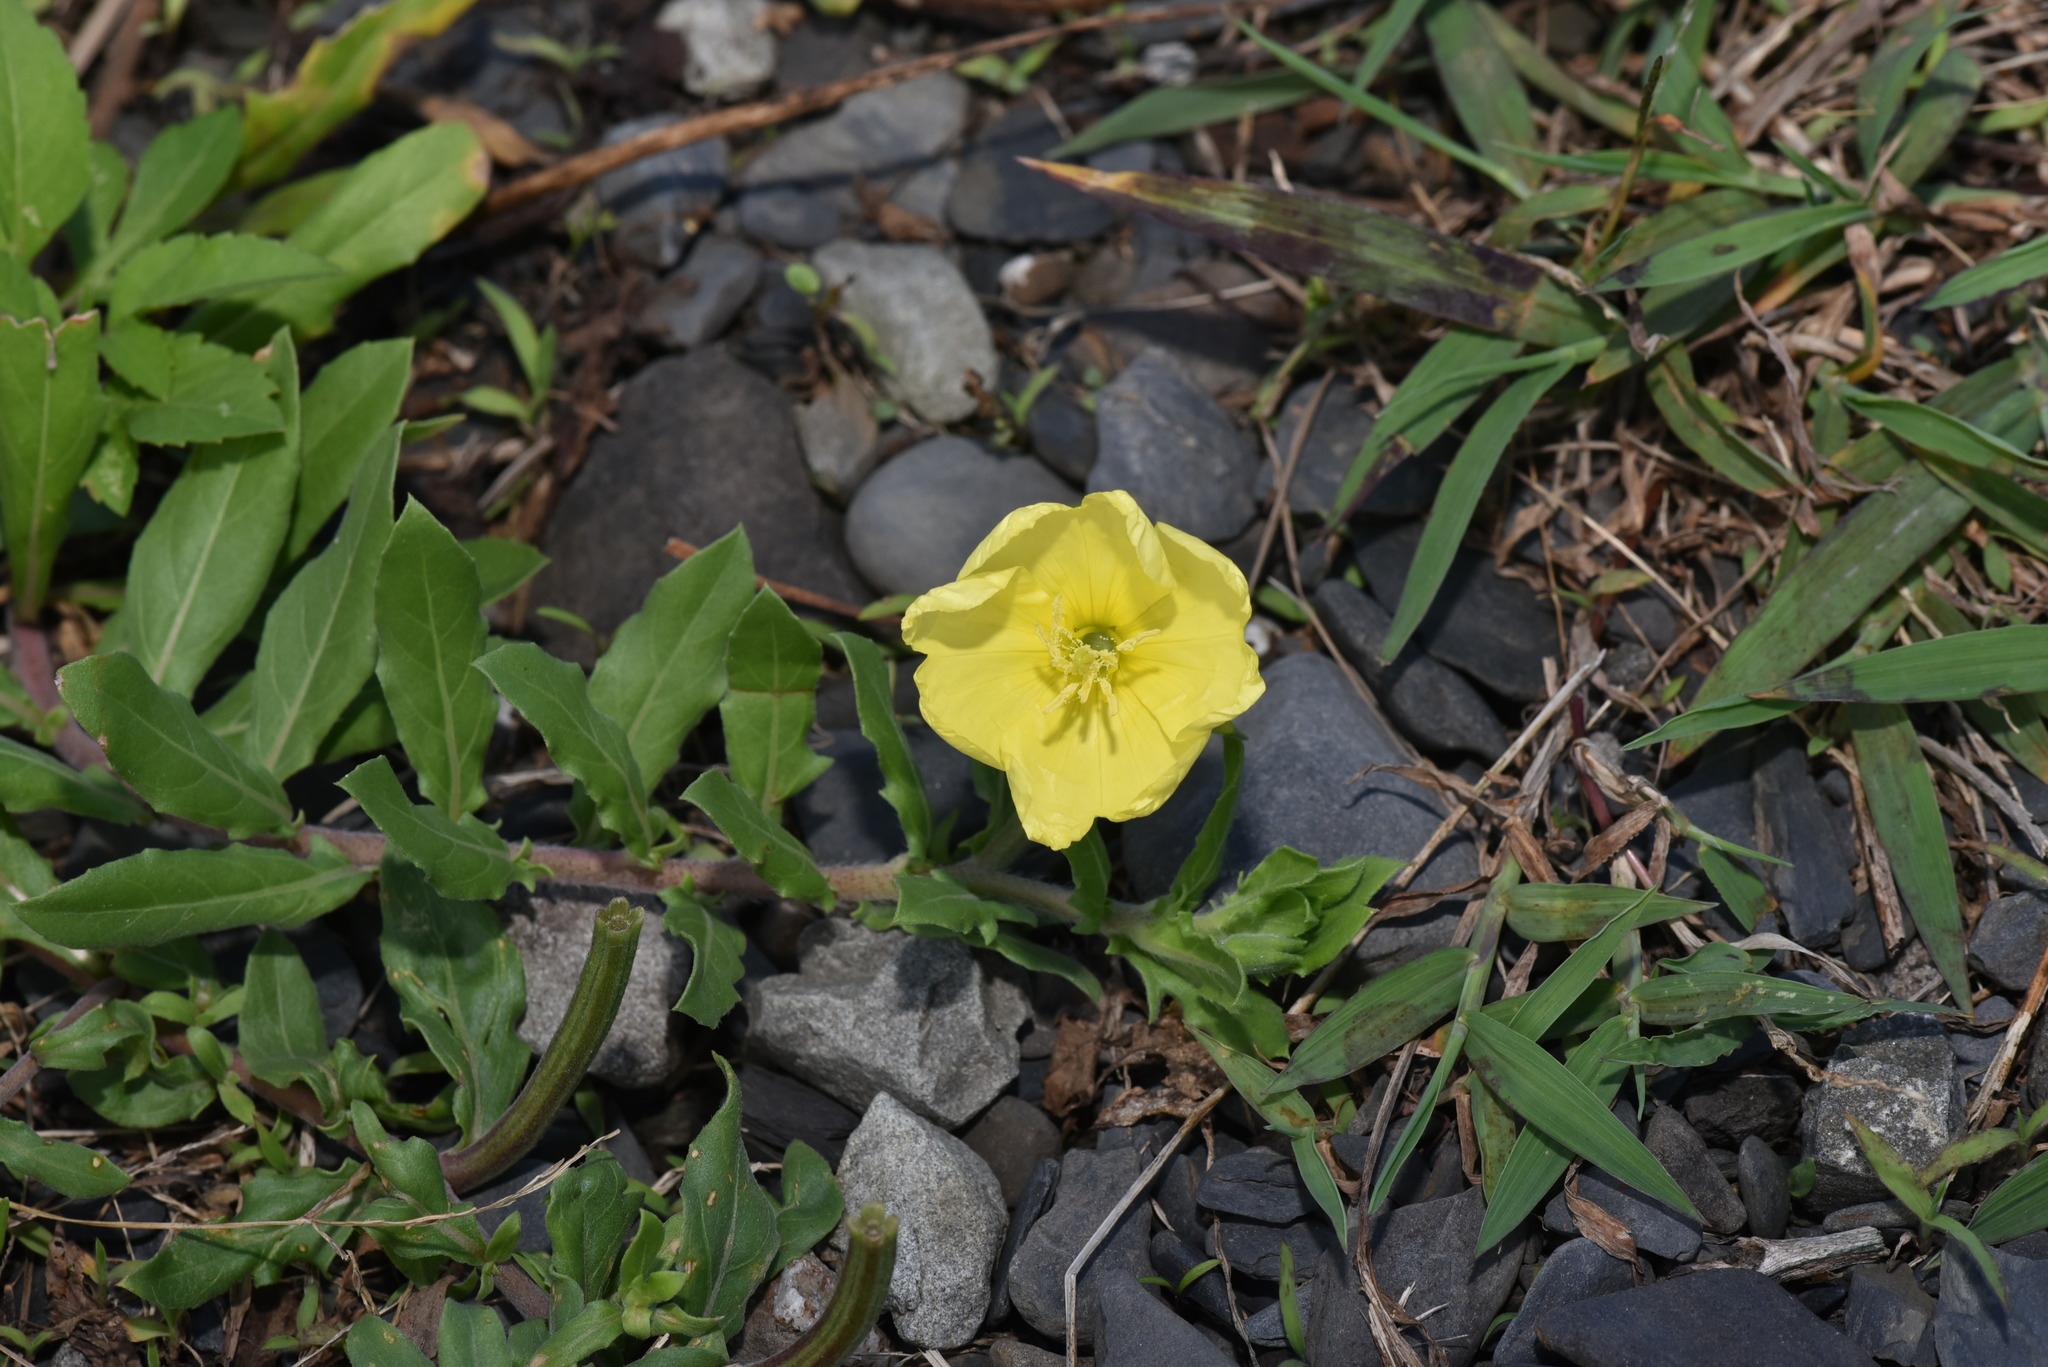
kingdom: Plantae
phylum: Tracheophyta
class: Magnoliopsida
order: Myrtales
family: Onagraceae
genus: Oenothera
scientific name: Oenothera laciniata
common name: Cut-leaved evening-primrose
